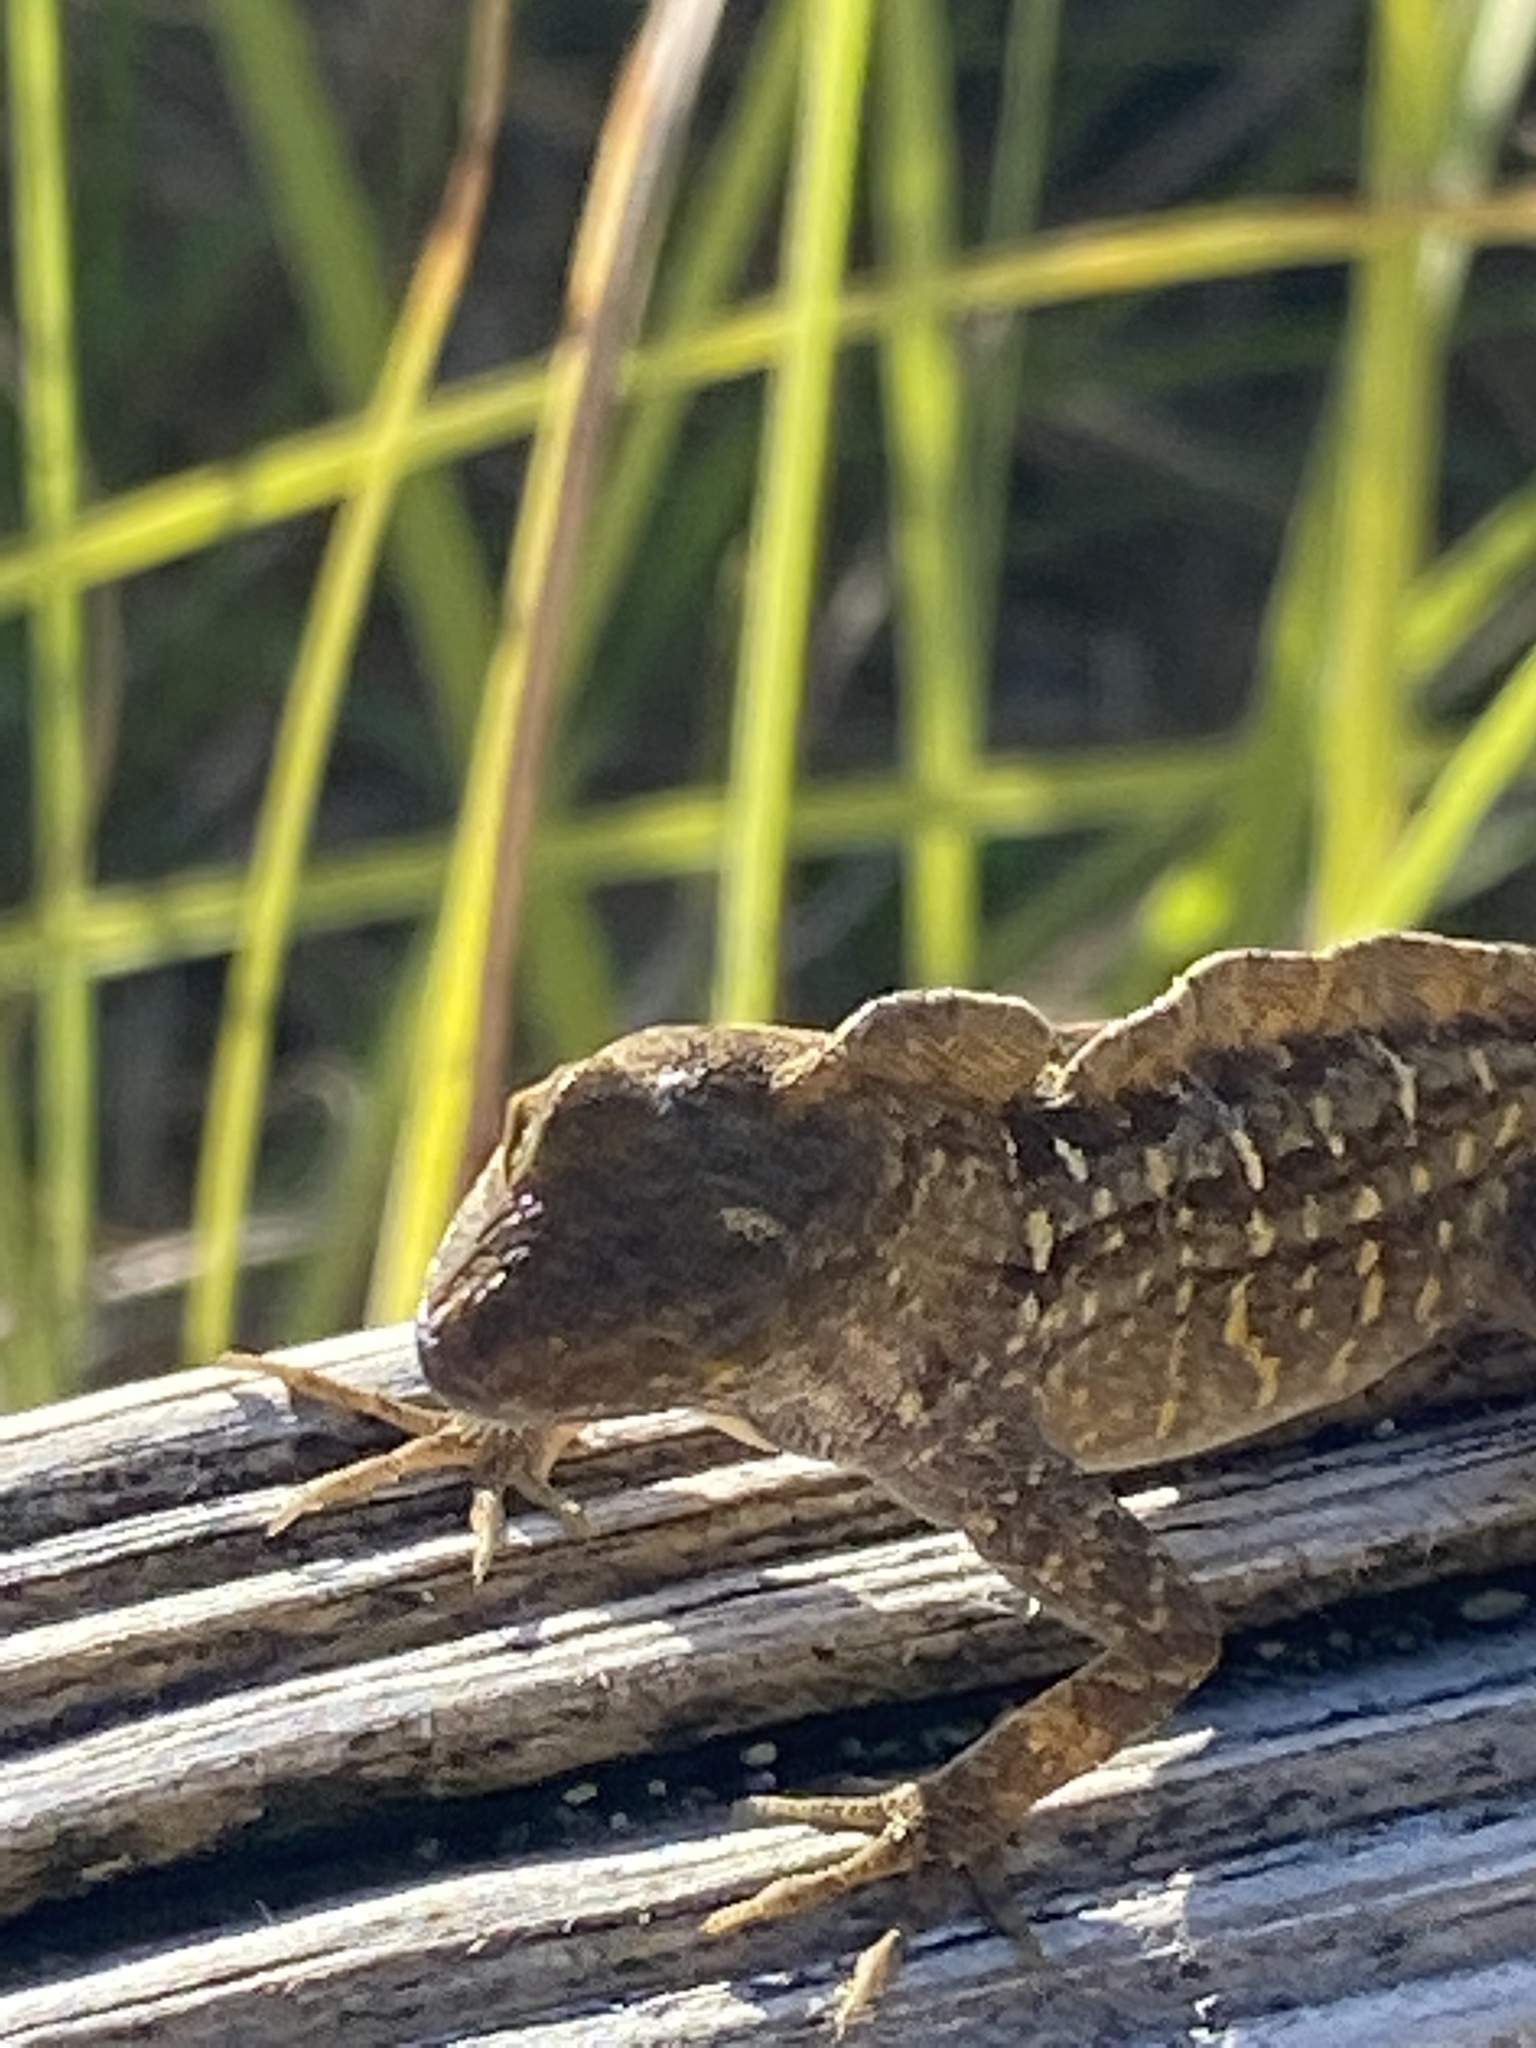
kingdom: Animalia
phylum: Chordata
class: Squamata
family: Dactyloidae
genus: Anolis
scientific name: Anolis sagrei
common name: Brown anole
